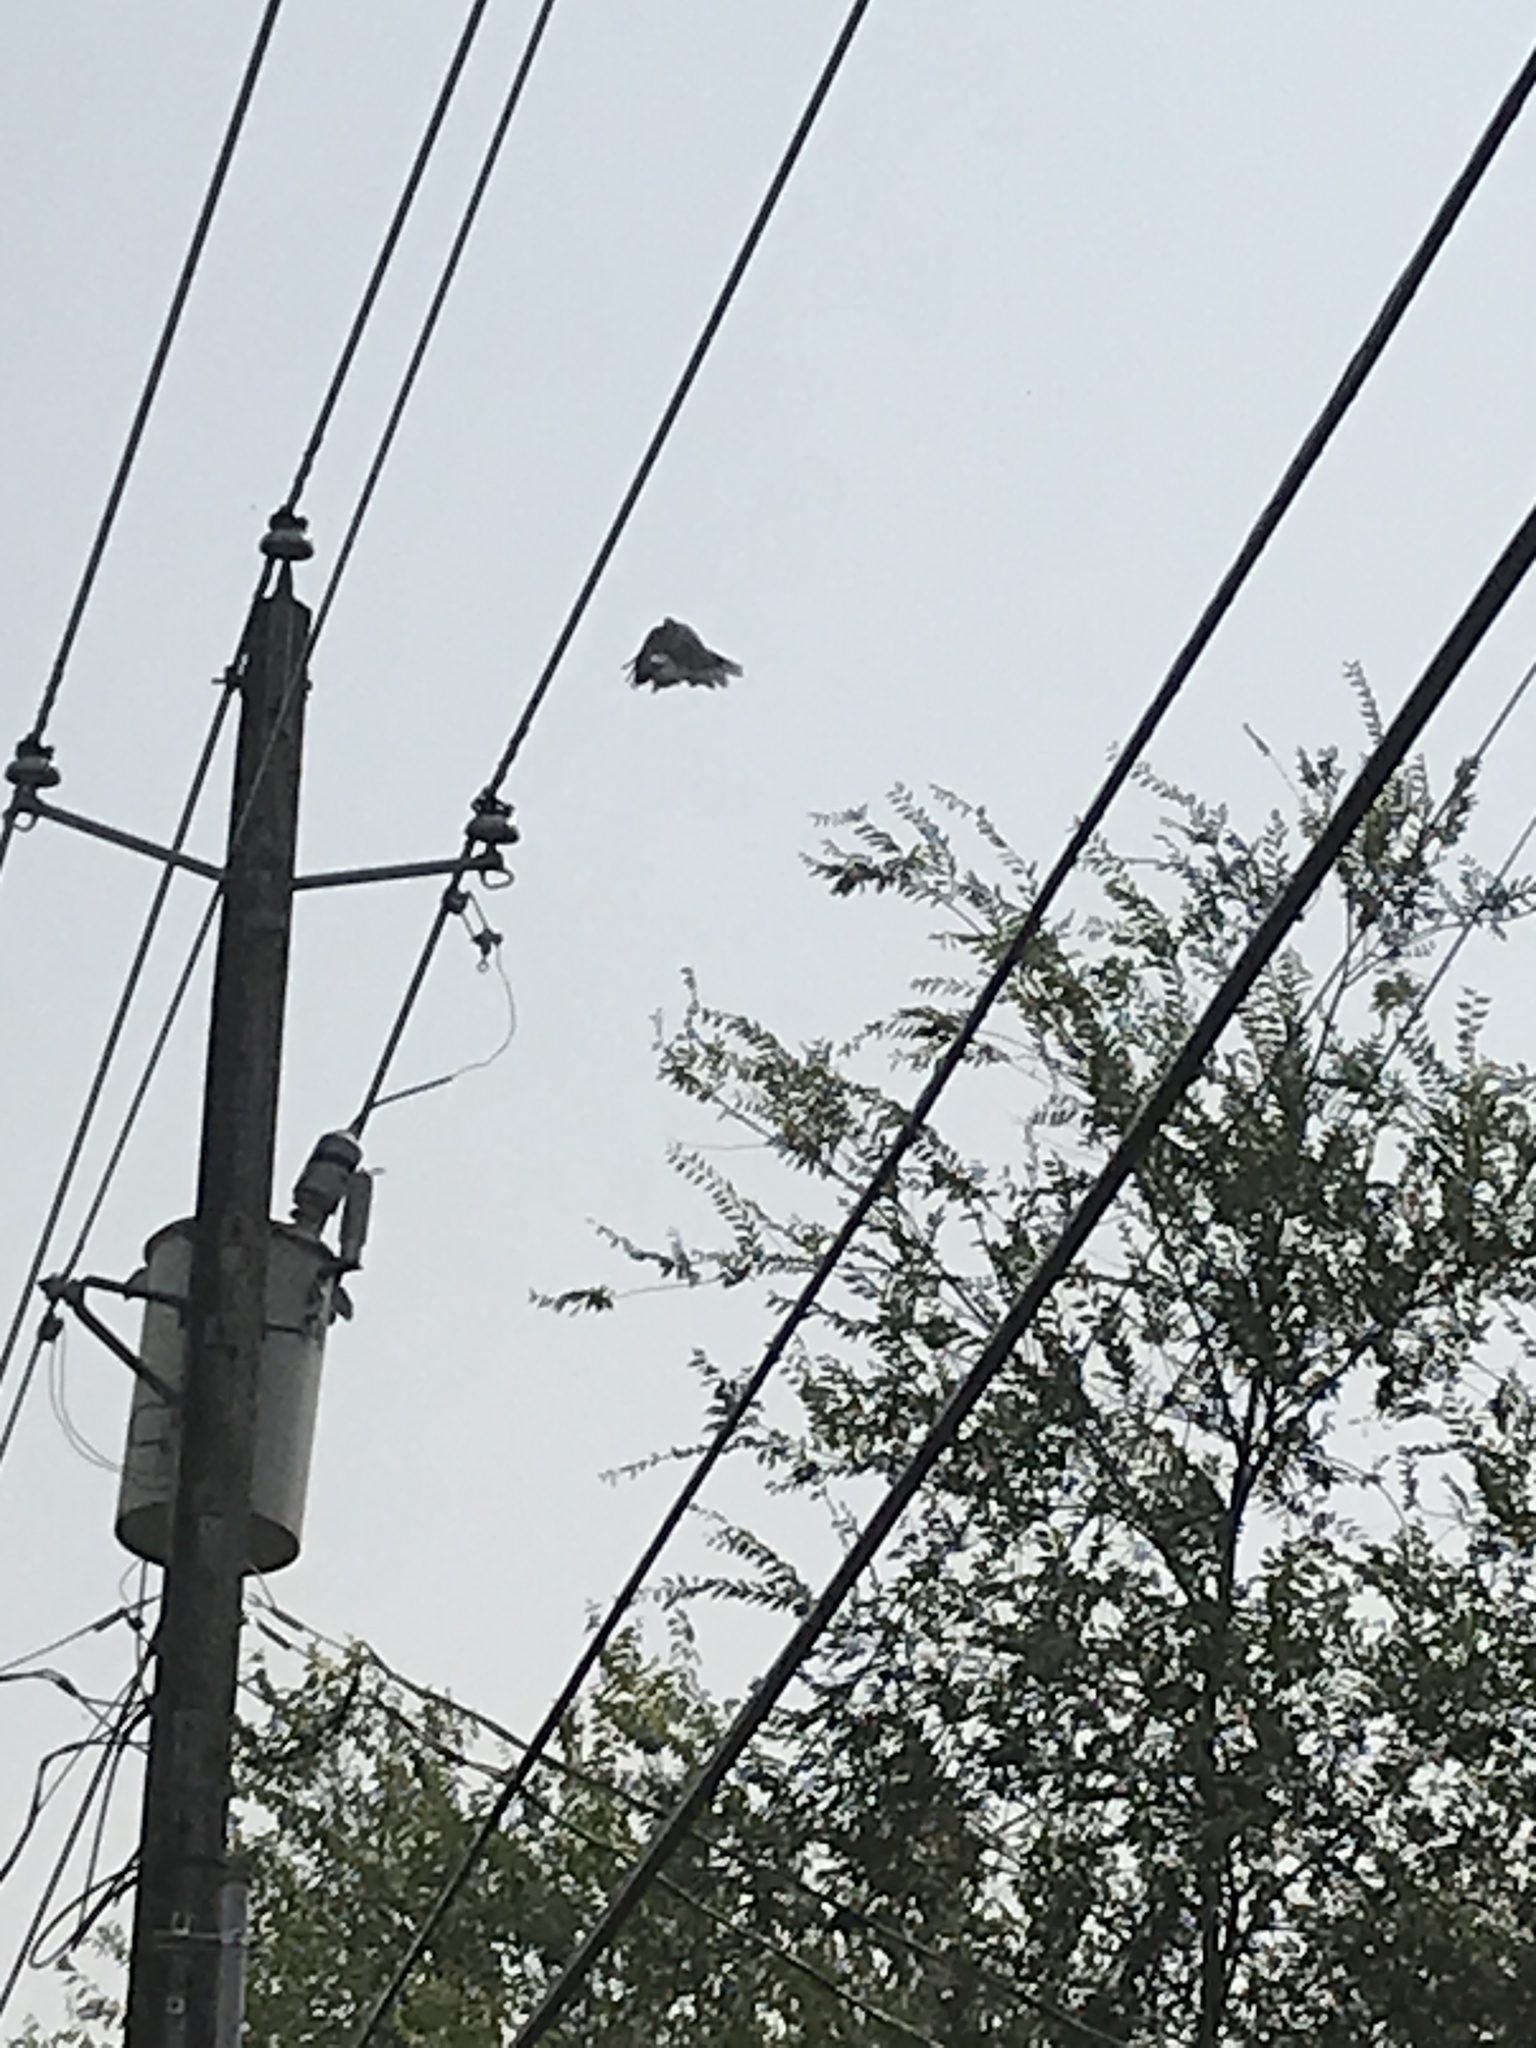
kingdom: Animalia
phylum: Chordata
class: Aves
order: Columbiformes
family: Columbidae
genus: Zenaida
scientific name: Zenaida macroura
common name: Mourning dove
